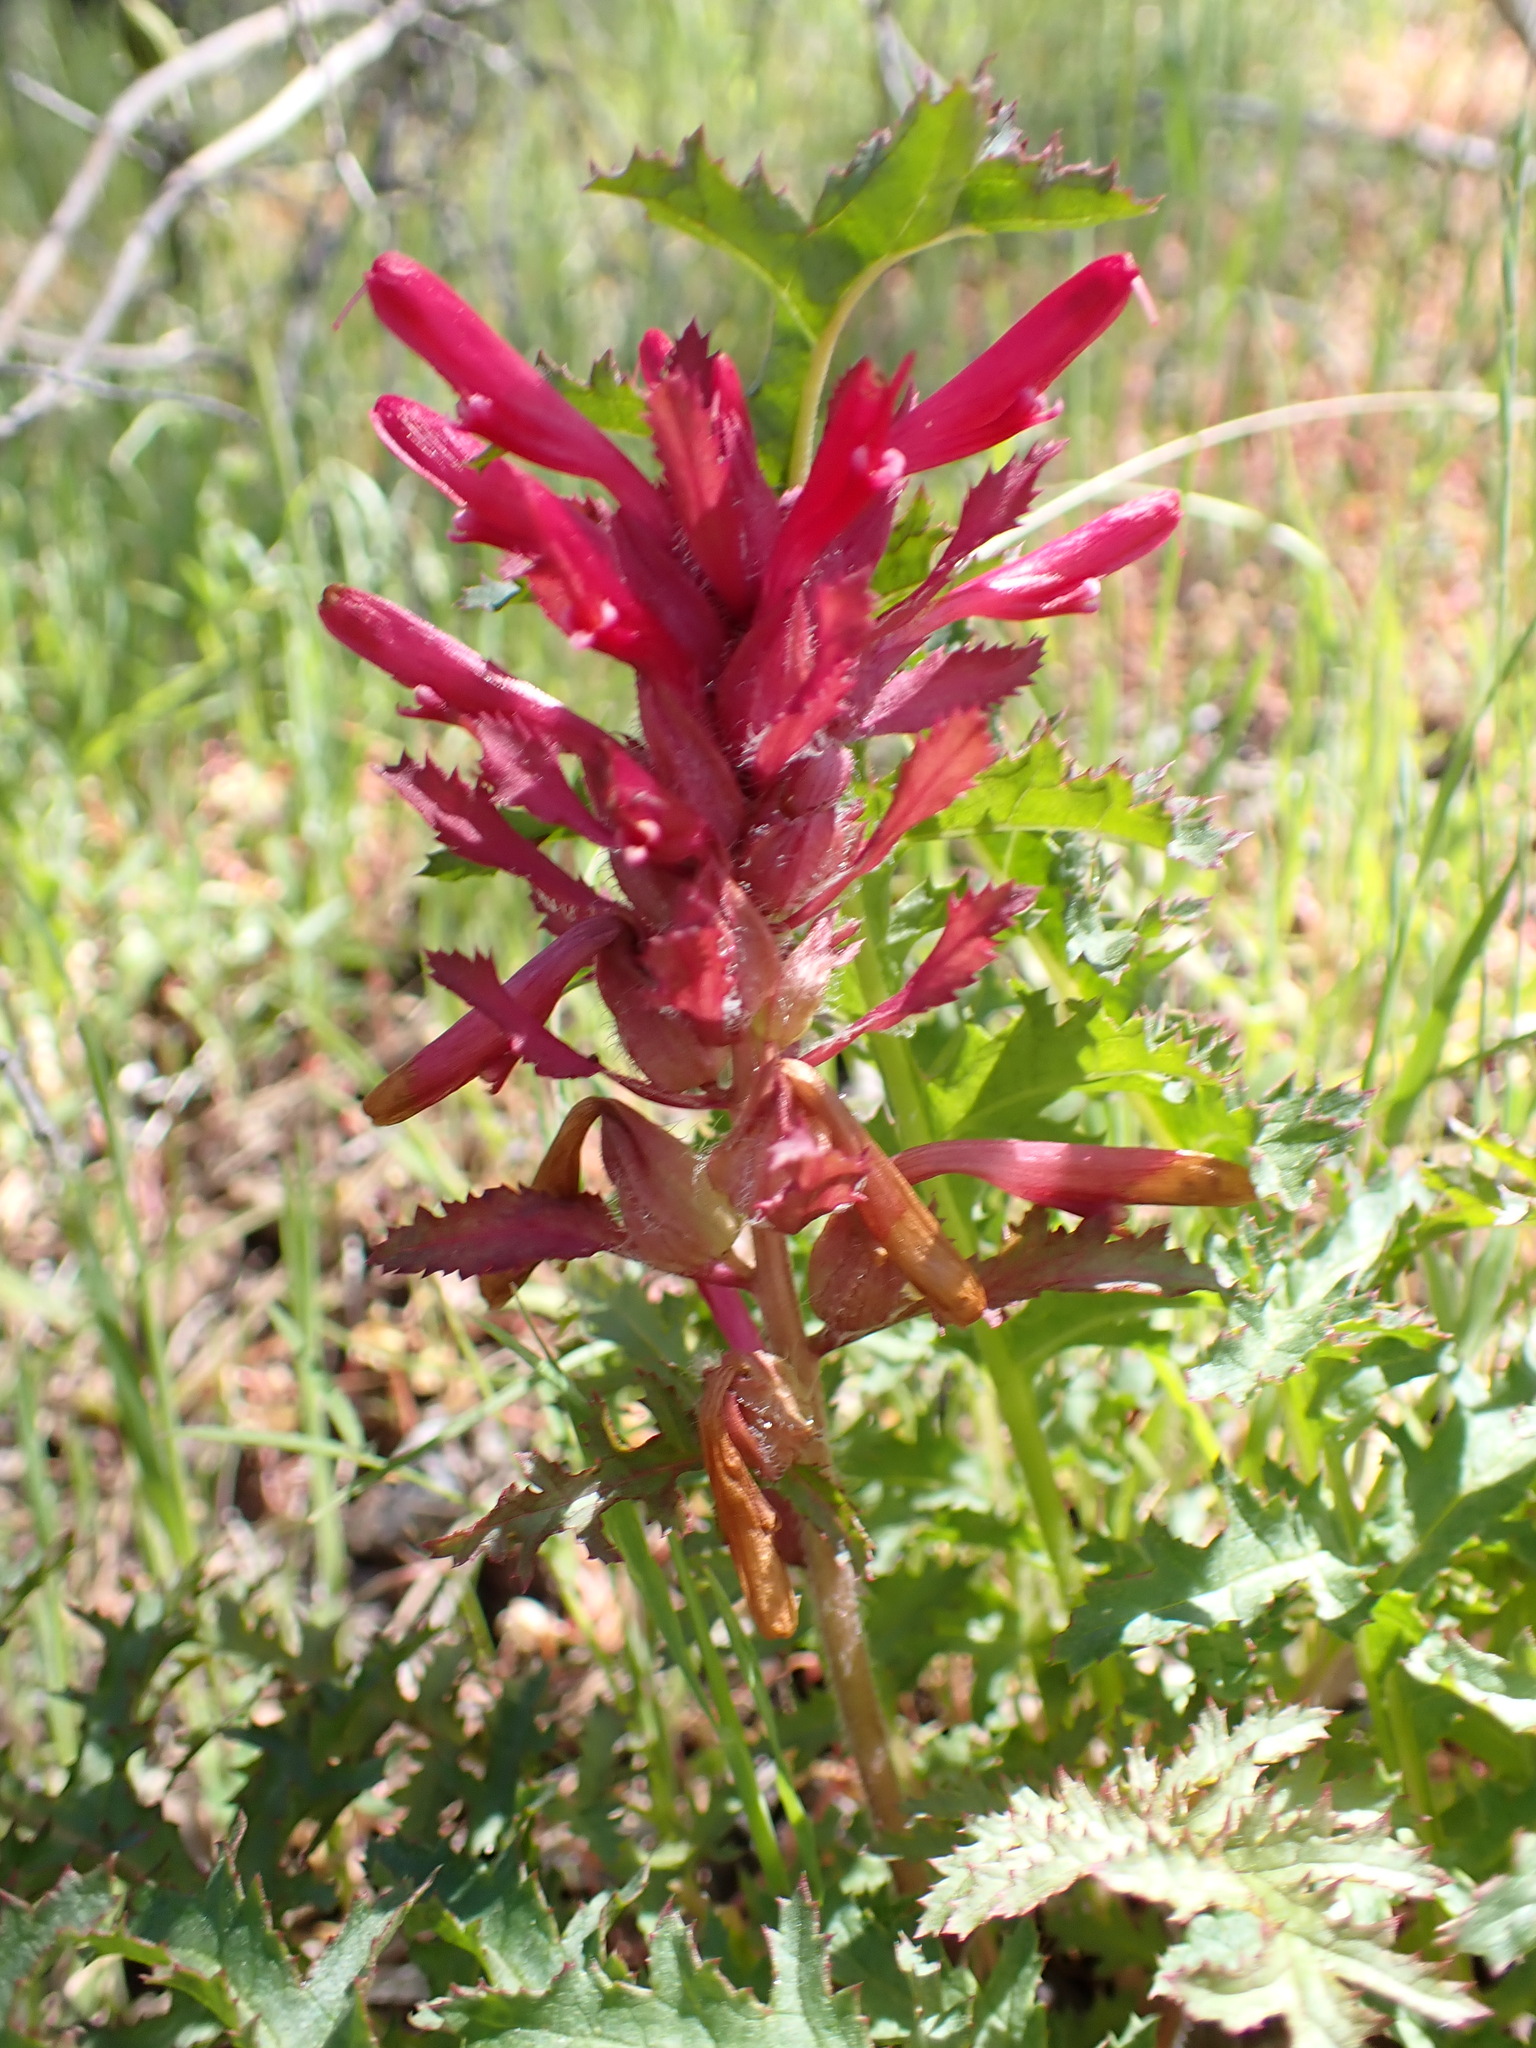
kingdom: Plantae
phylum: Tracheophyta
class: Magnoliopsida
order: Lamiales
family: Orobanchaceae
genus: Pedicularis
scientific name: Pedicularis densiflora
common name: Indian warrior
